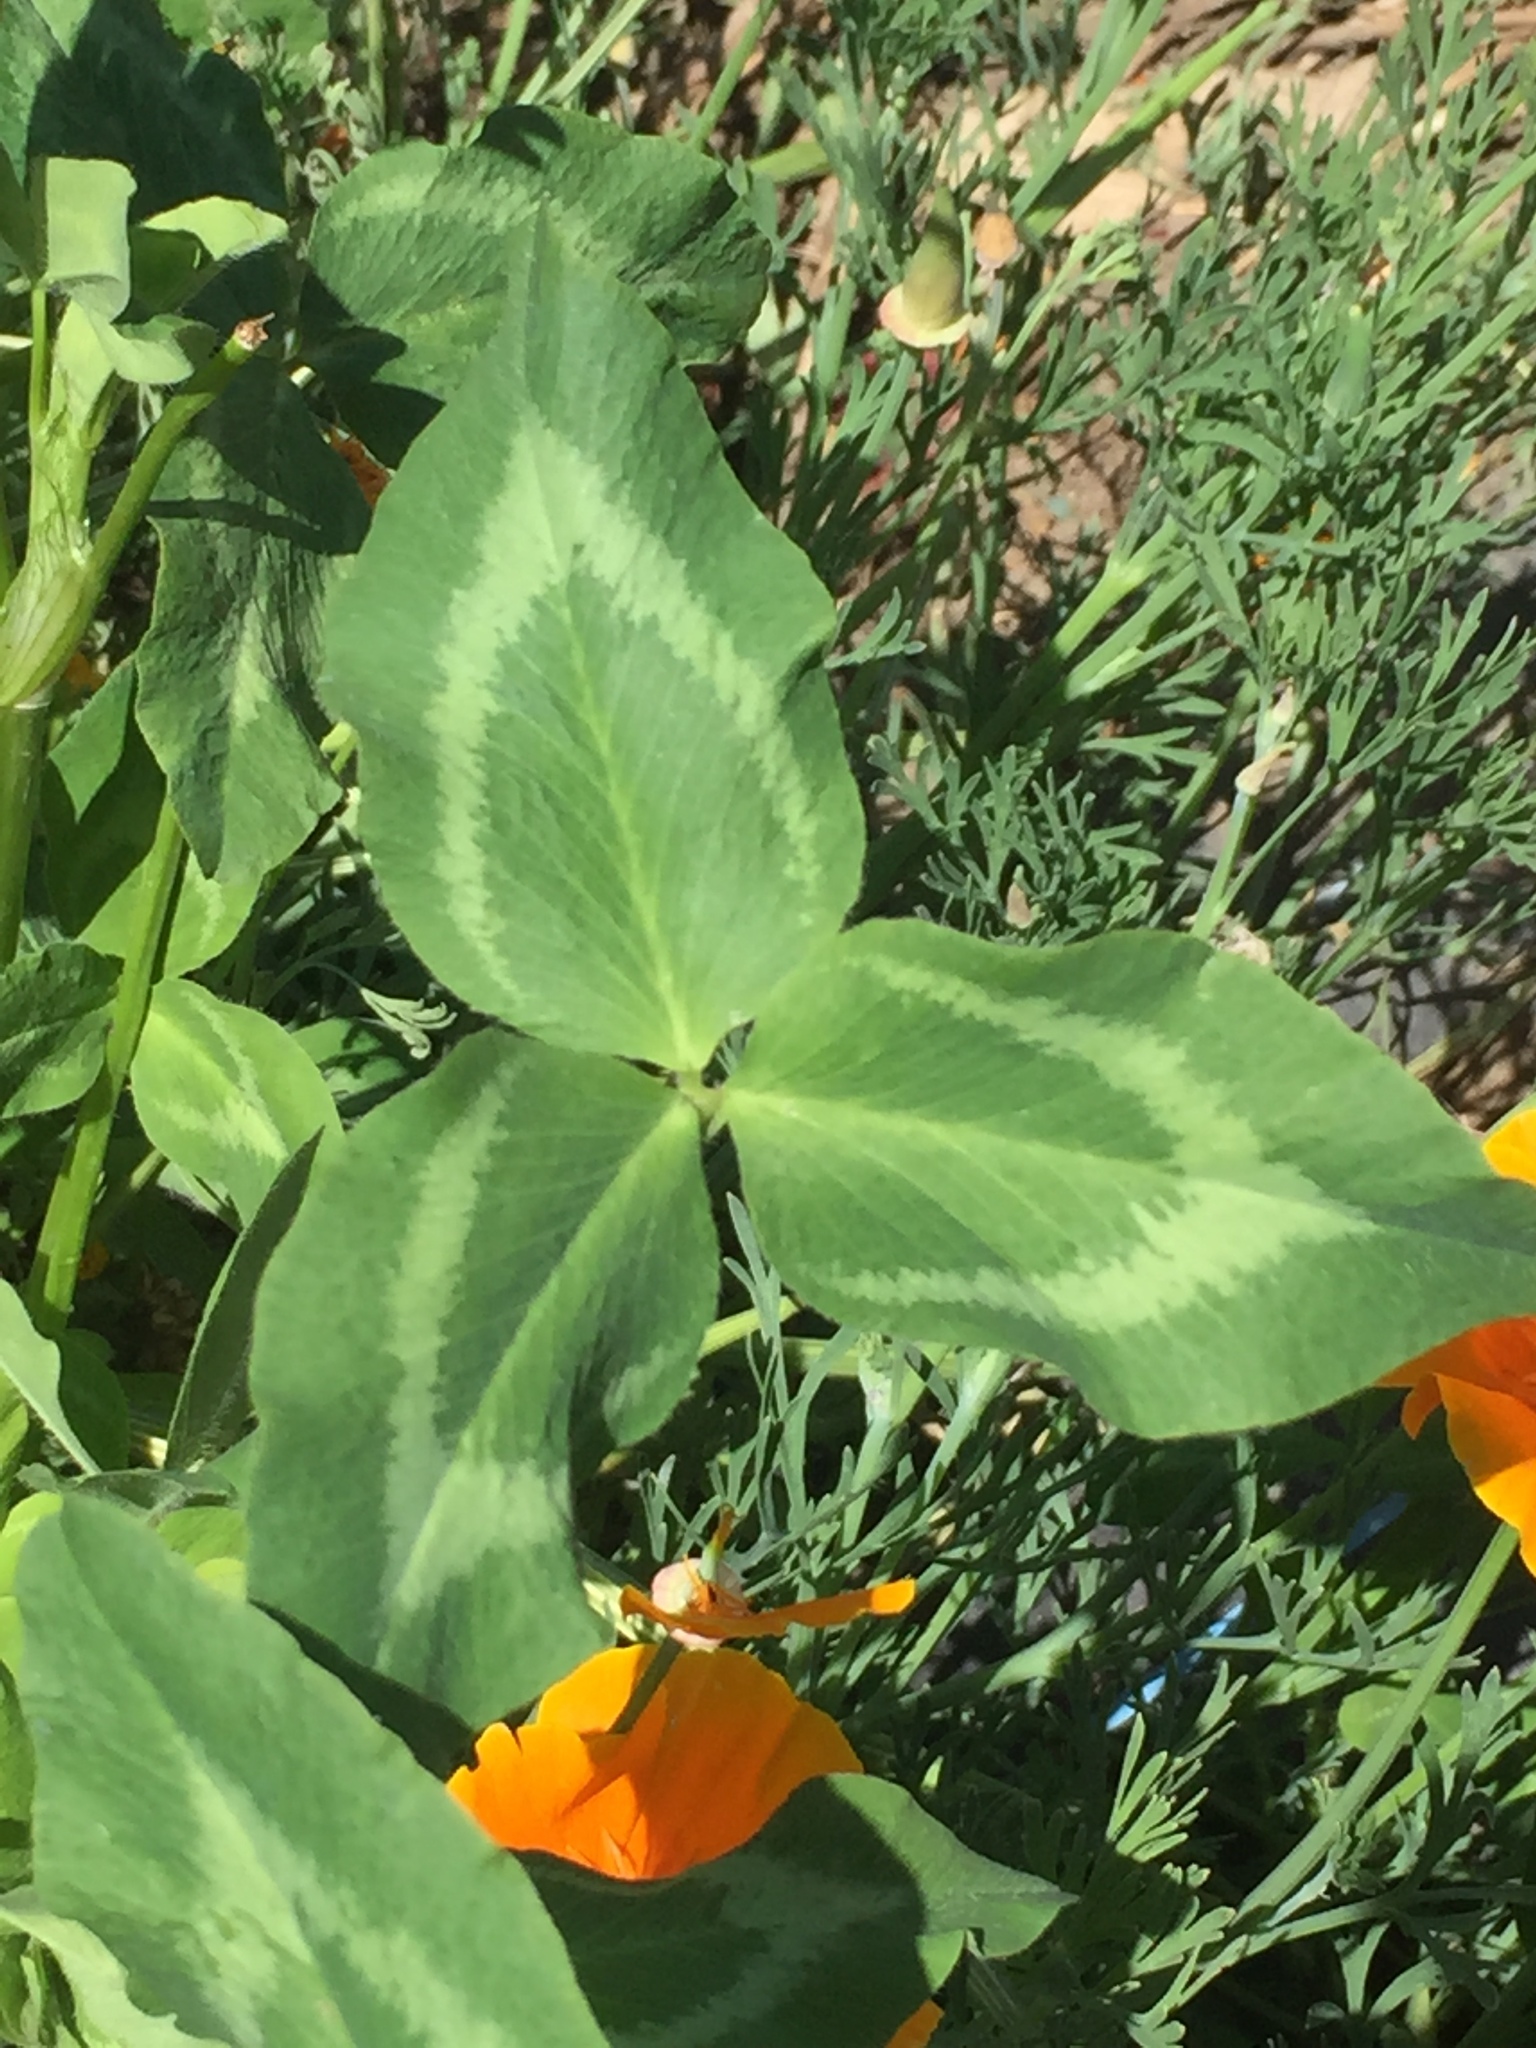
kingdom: Plantae
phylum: Tracheophyta
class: Magnoliopsida
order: Fabales
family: Fabaceae
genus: Trifolium
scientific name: Trifolium pratense
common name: Red clover
